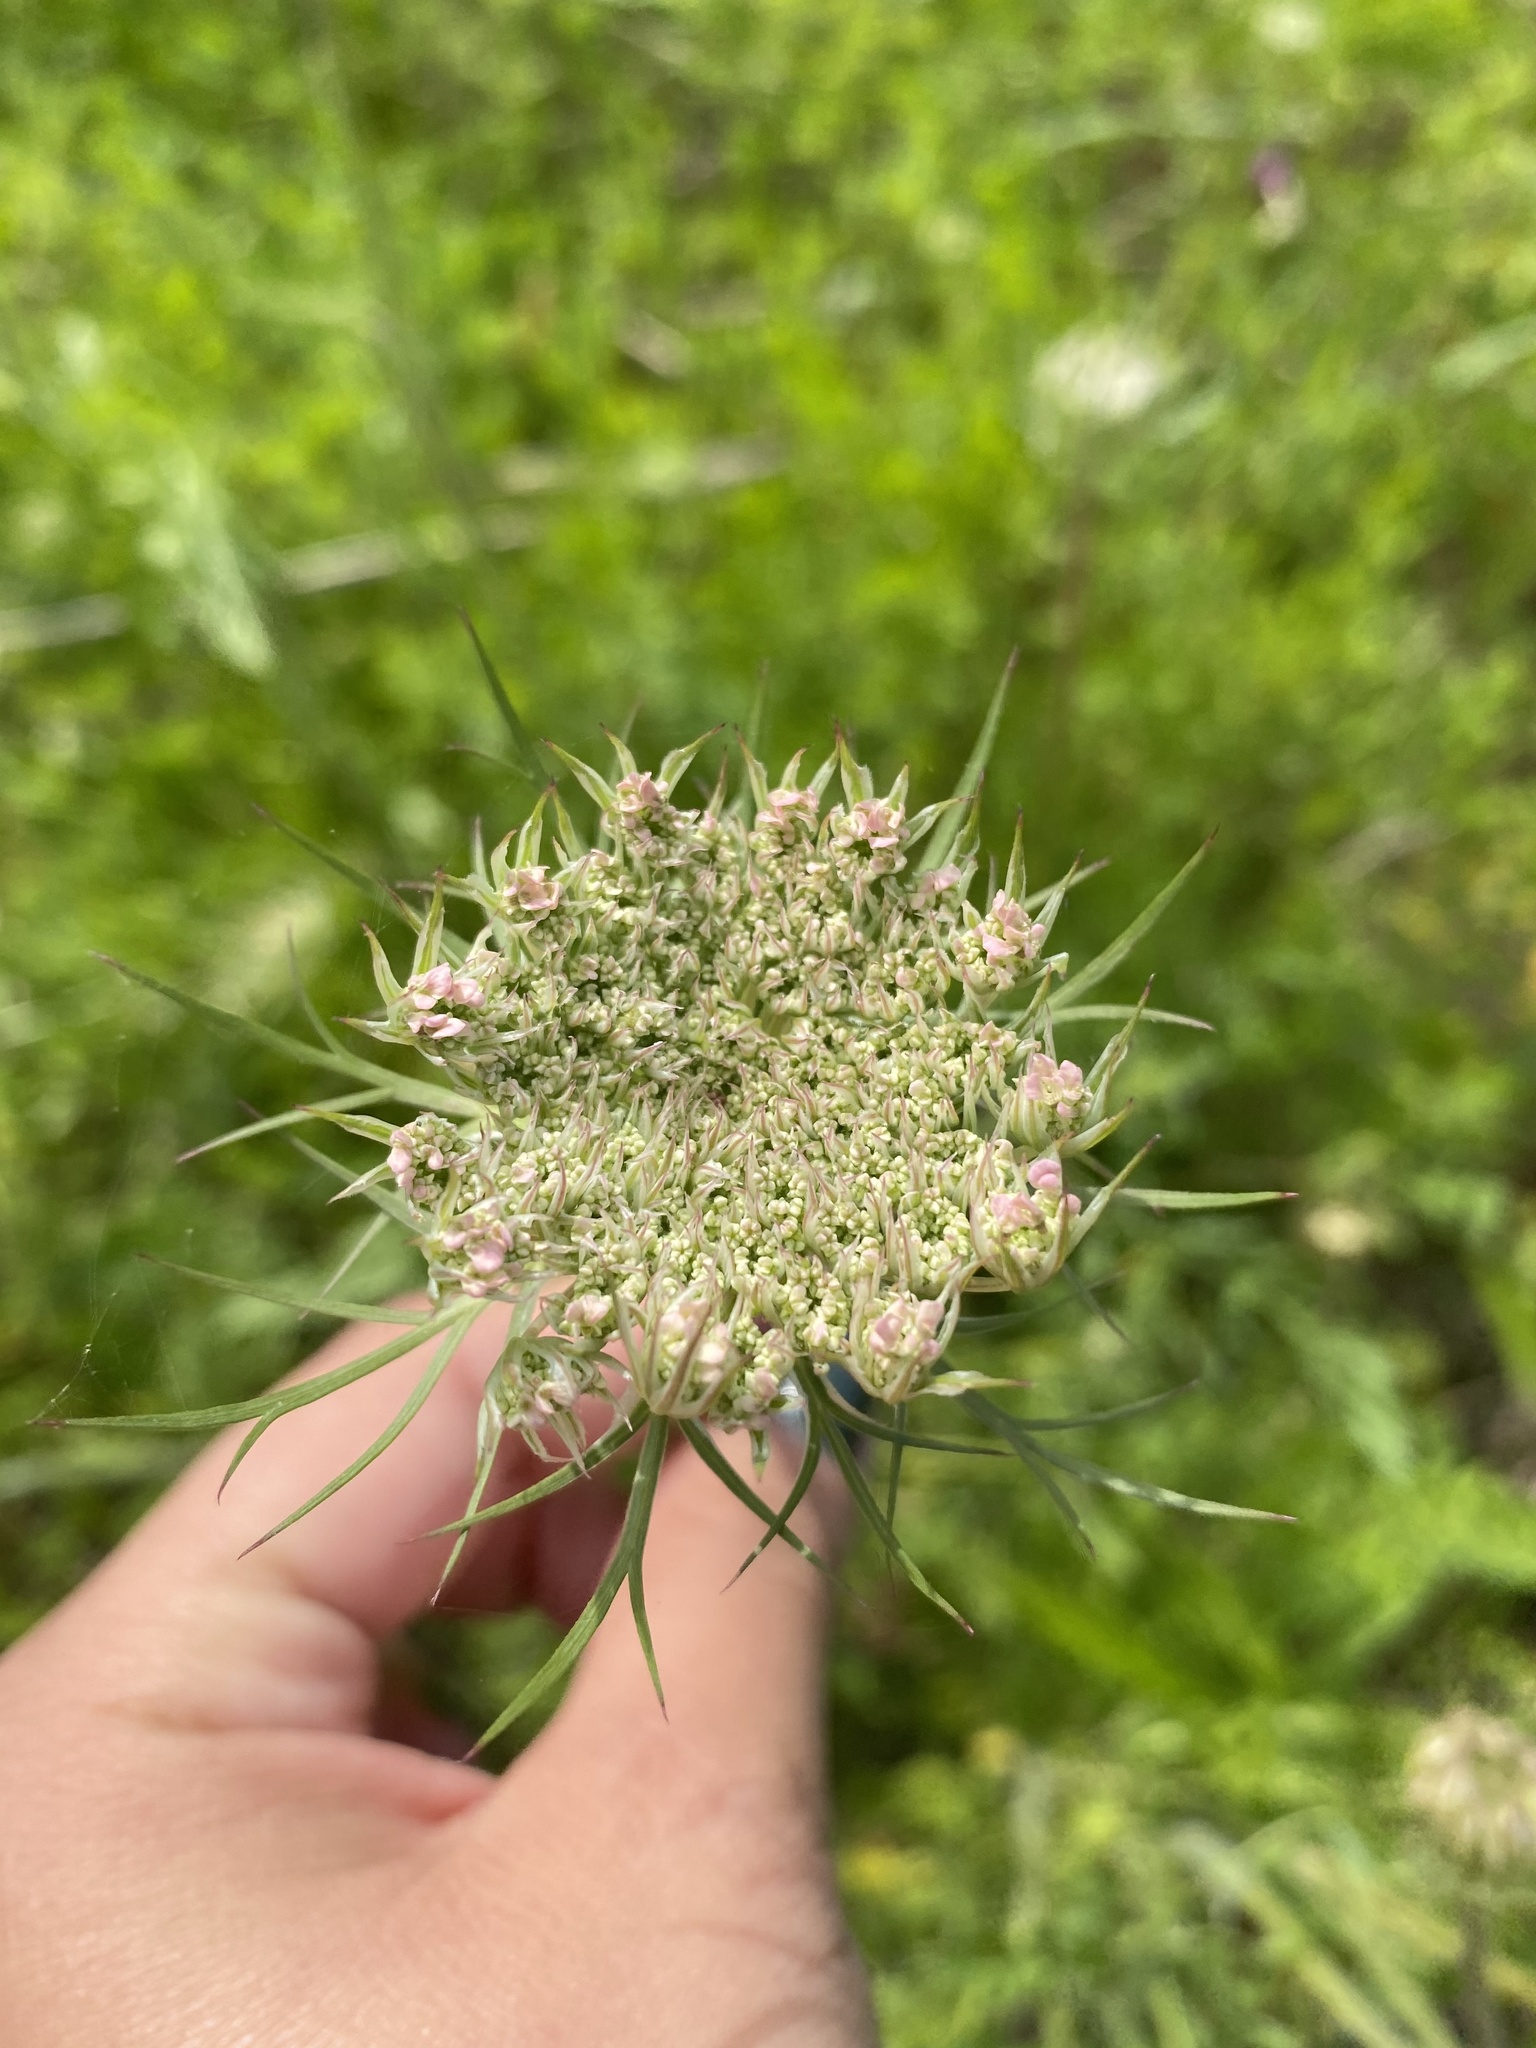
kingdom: Plantae
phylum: Tracheophyta
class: Magnoliopsida
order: Apiales
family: Apiaceae
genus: Daucus
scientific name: Daucus carota
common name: Wild carrot
